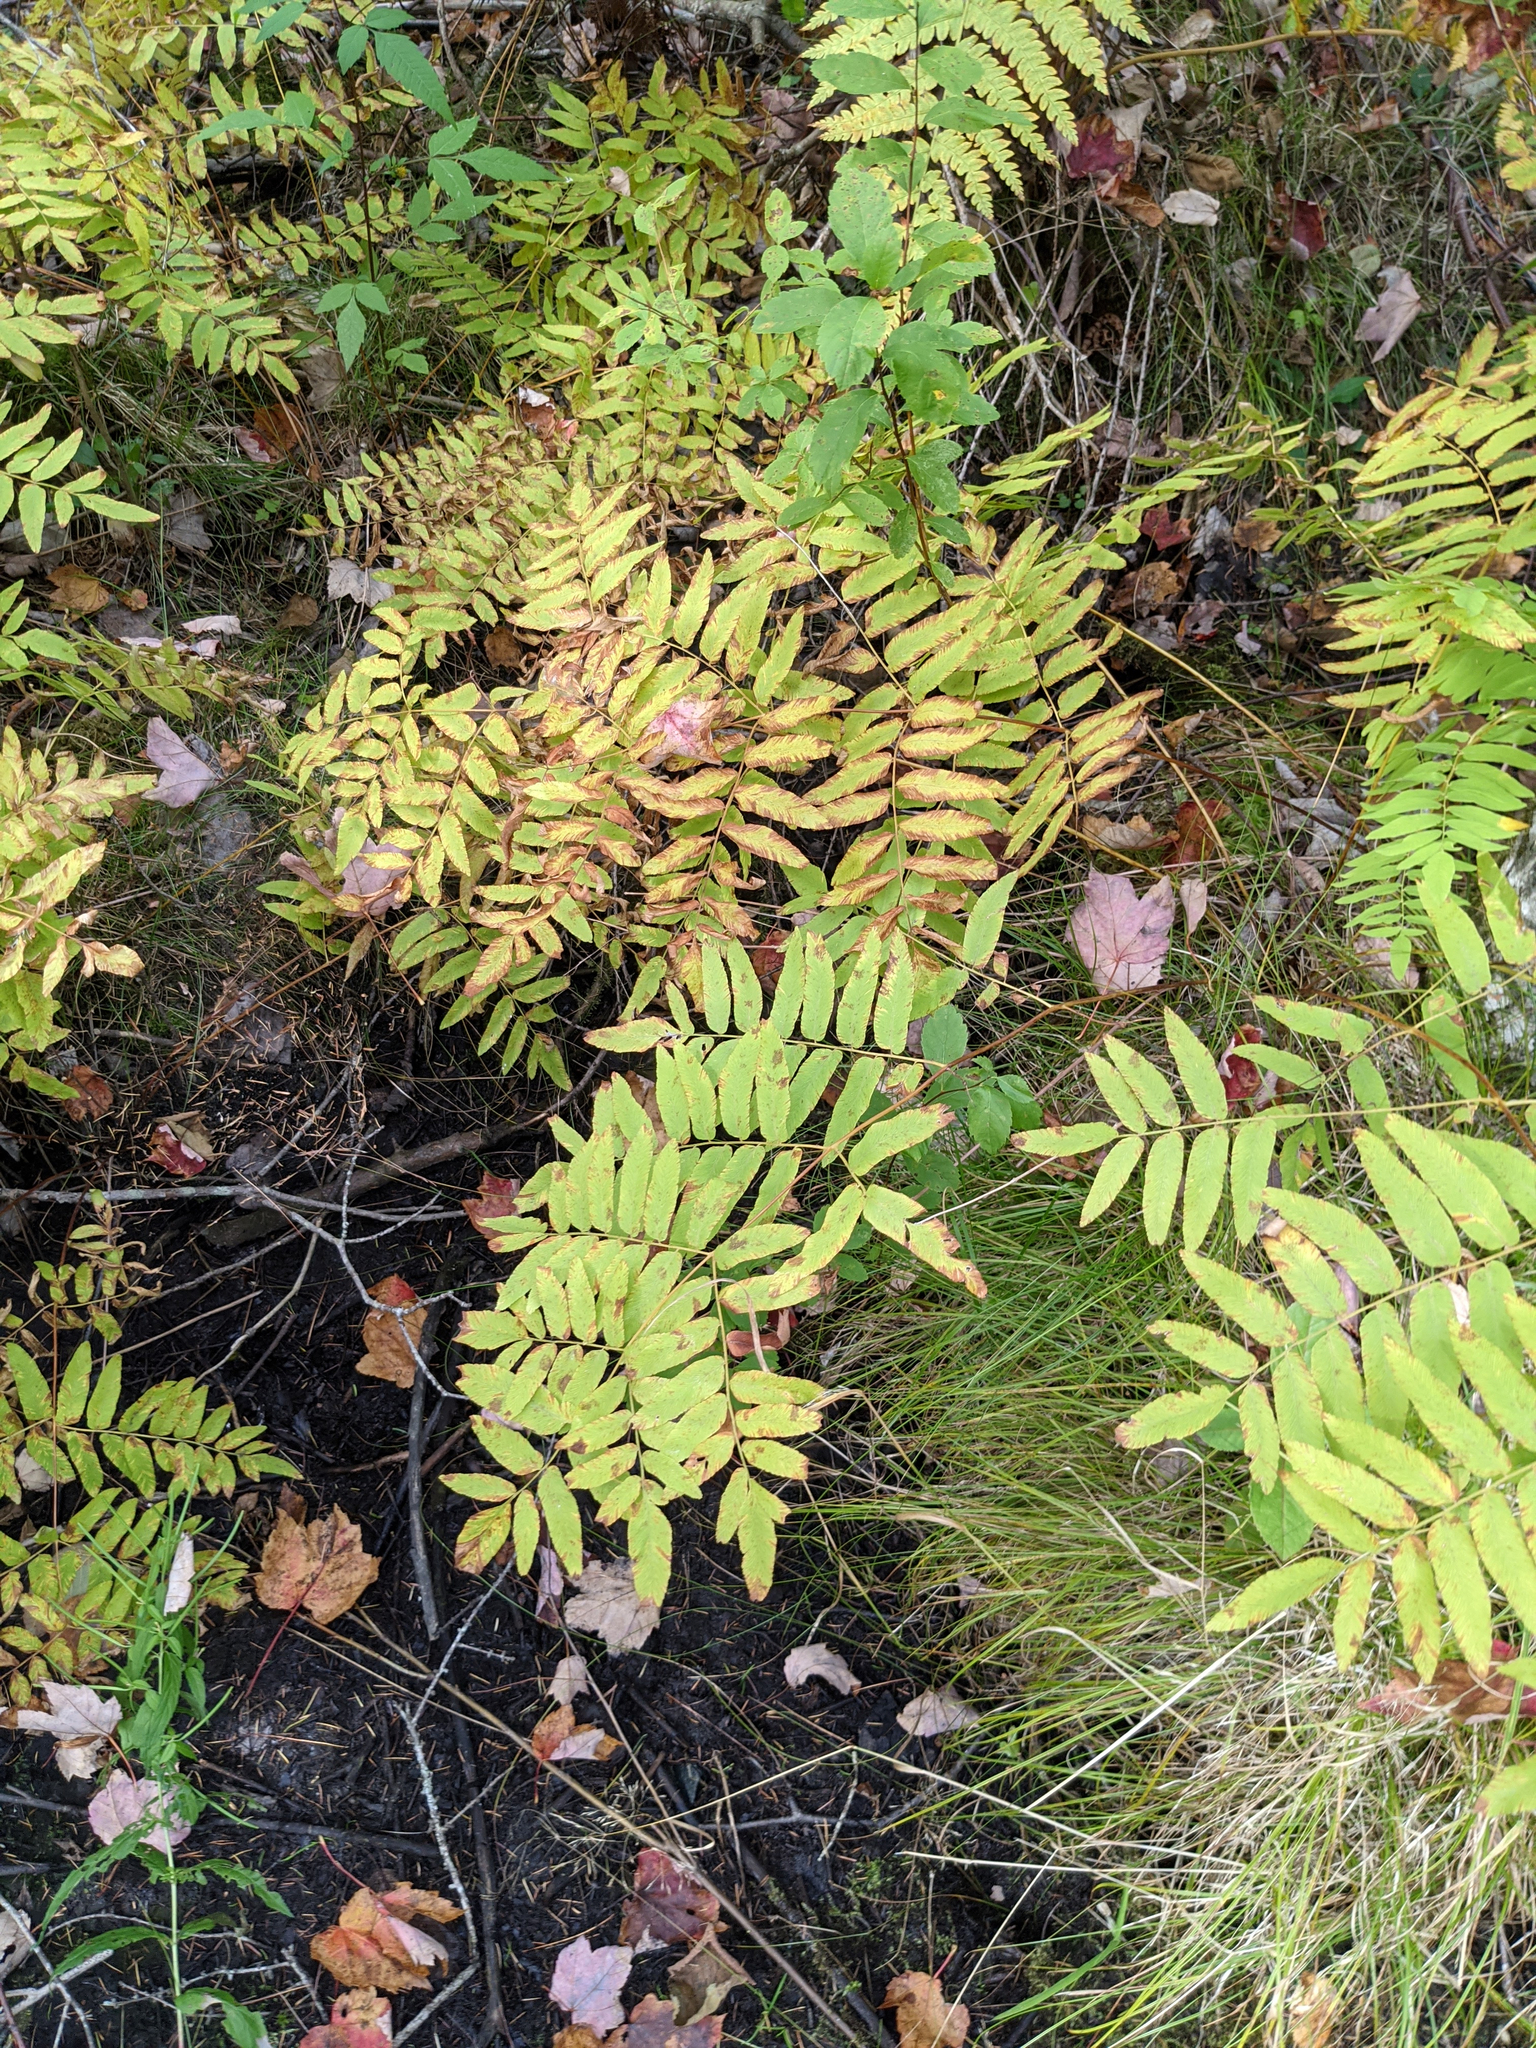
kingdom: Plantae
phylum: Tracheophyta
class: Polypodiopsida
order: Osmundales
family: Osmundaceae
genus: Osmunda
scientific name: Osmunda spectabilis
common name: American royal fern
